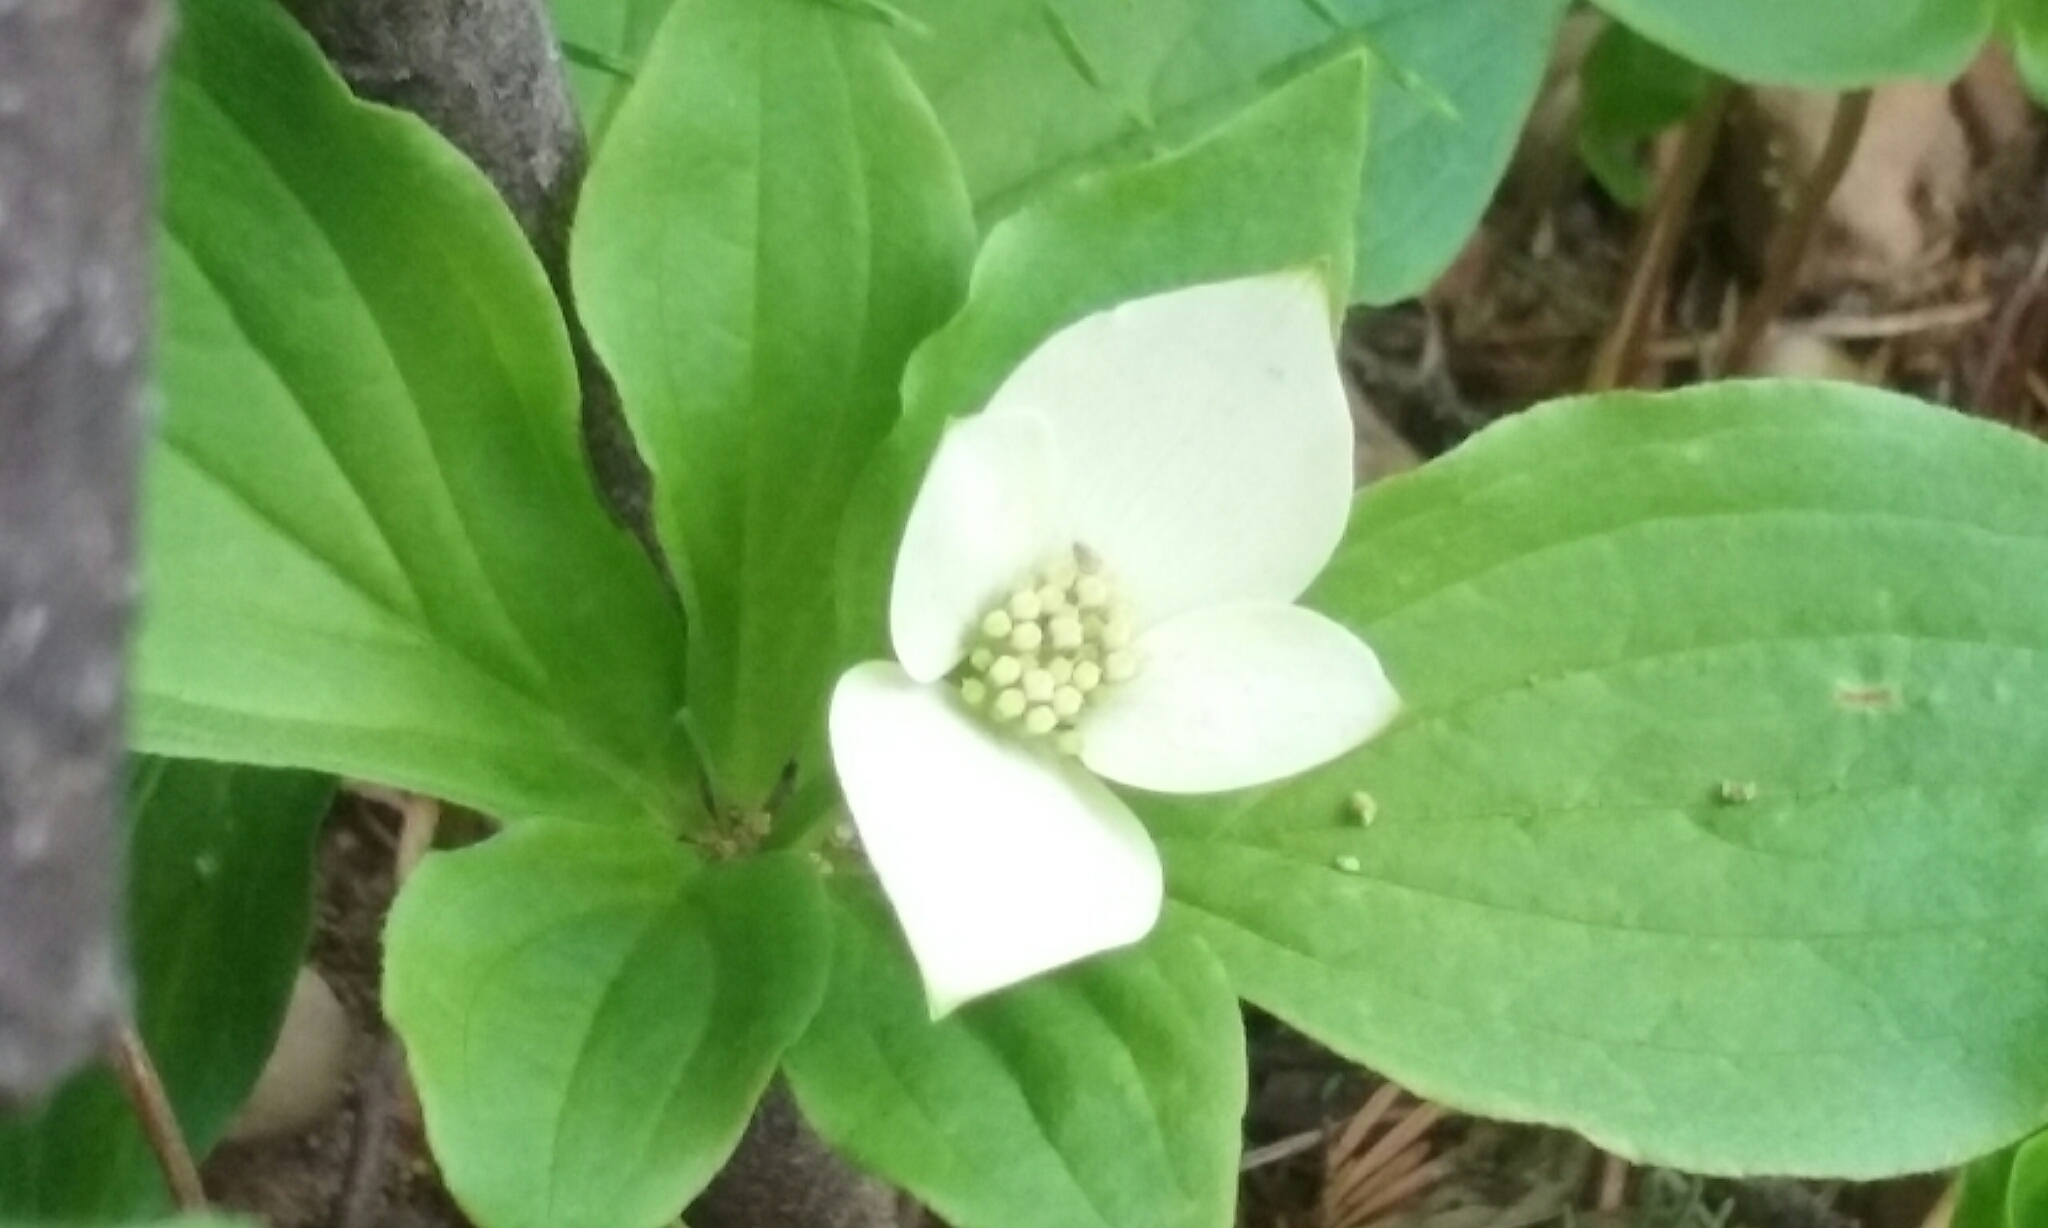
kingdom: Plantae
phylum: Tracheophyta
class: Magnoliopsida
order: Cornales
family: Cornaceae
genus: Cornus
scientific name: Cornus canadensis
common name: Creeping dogwood
